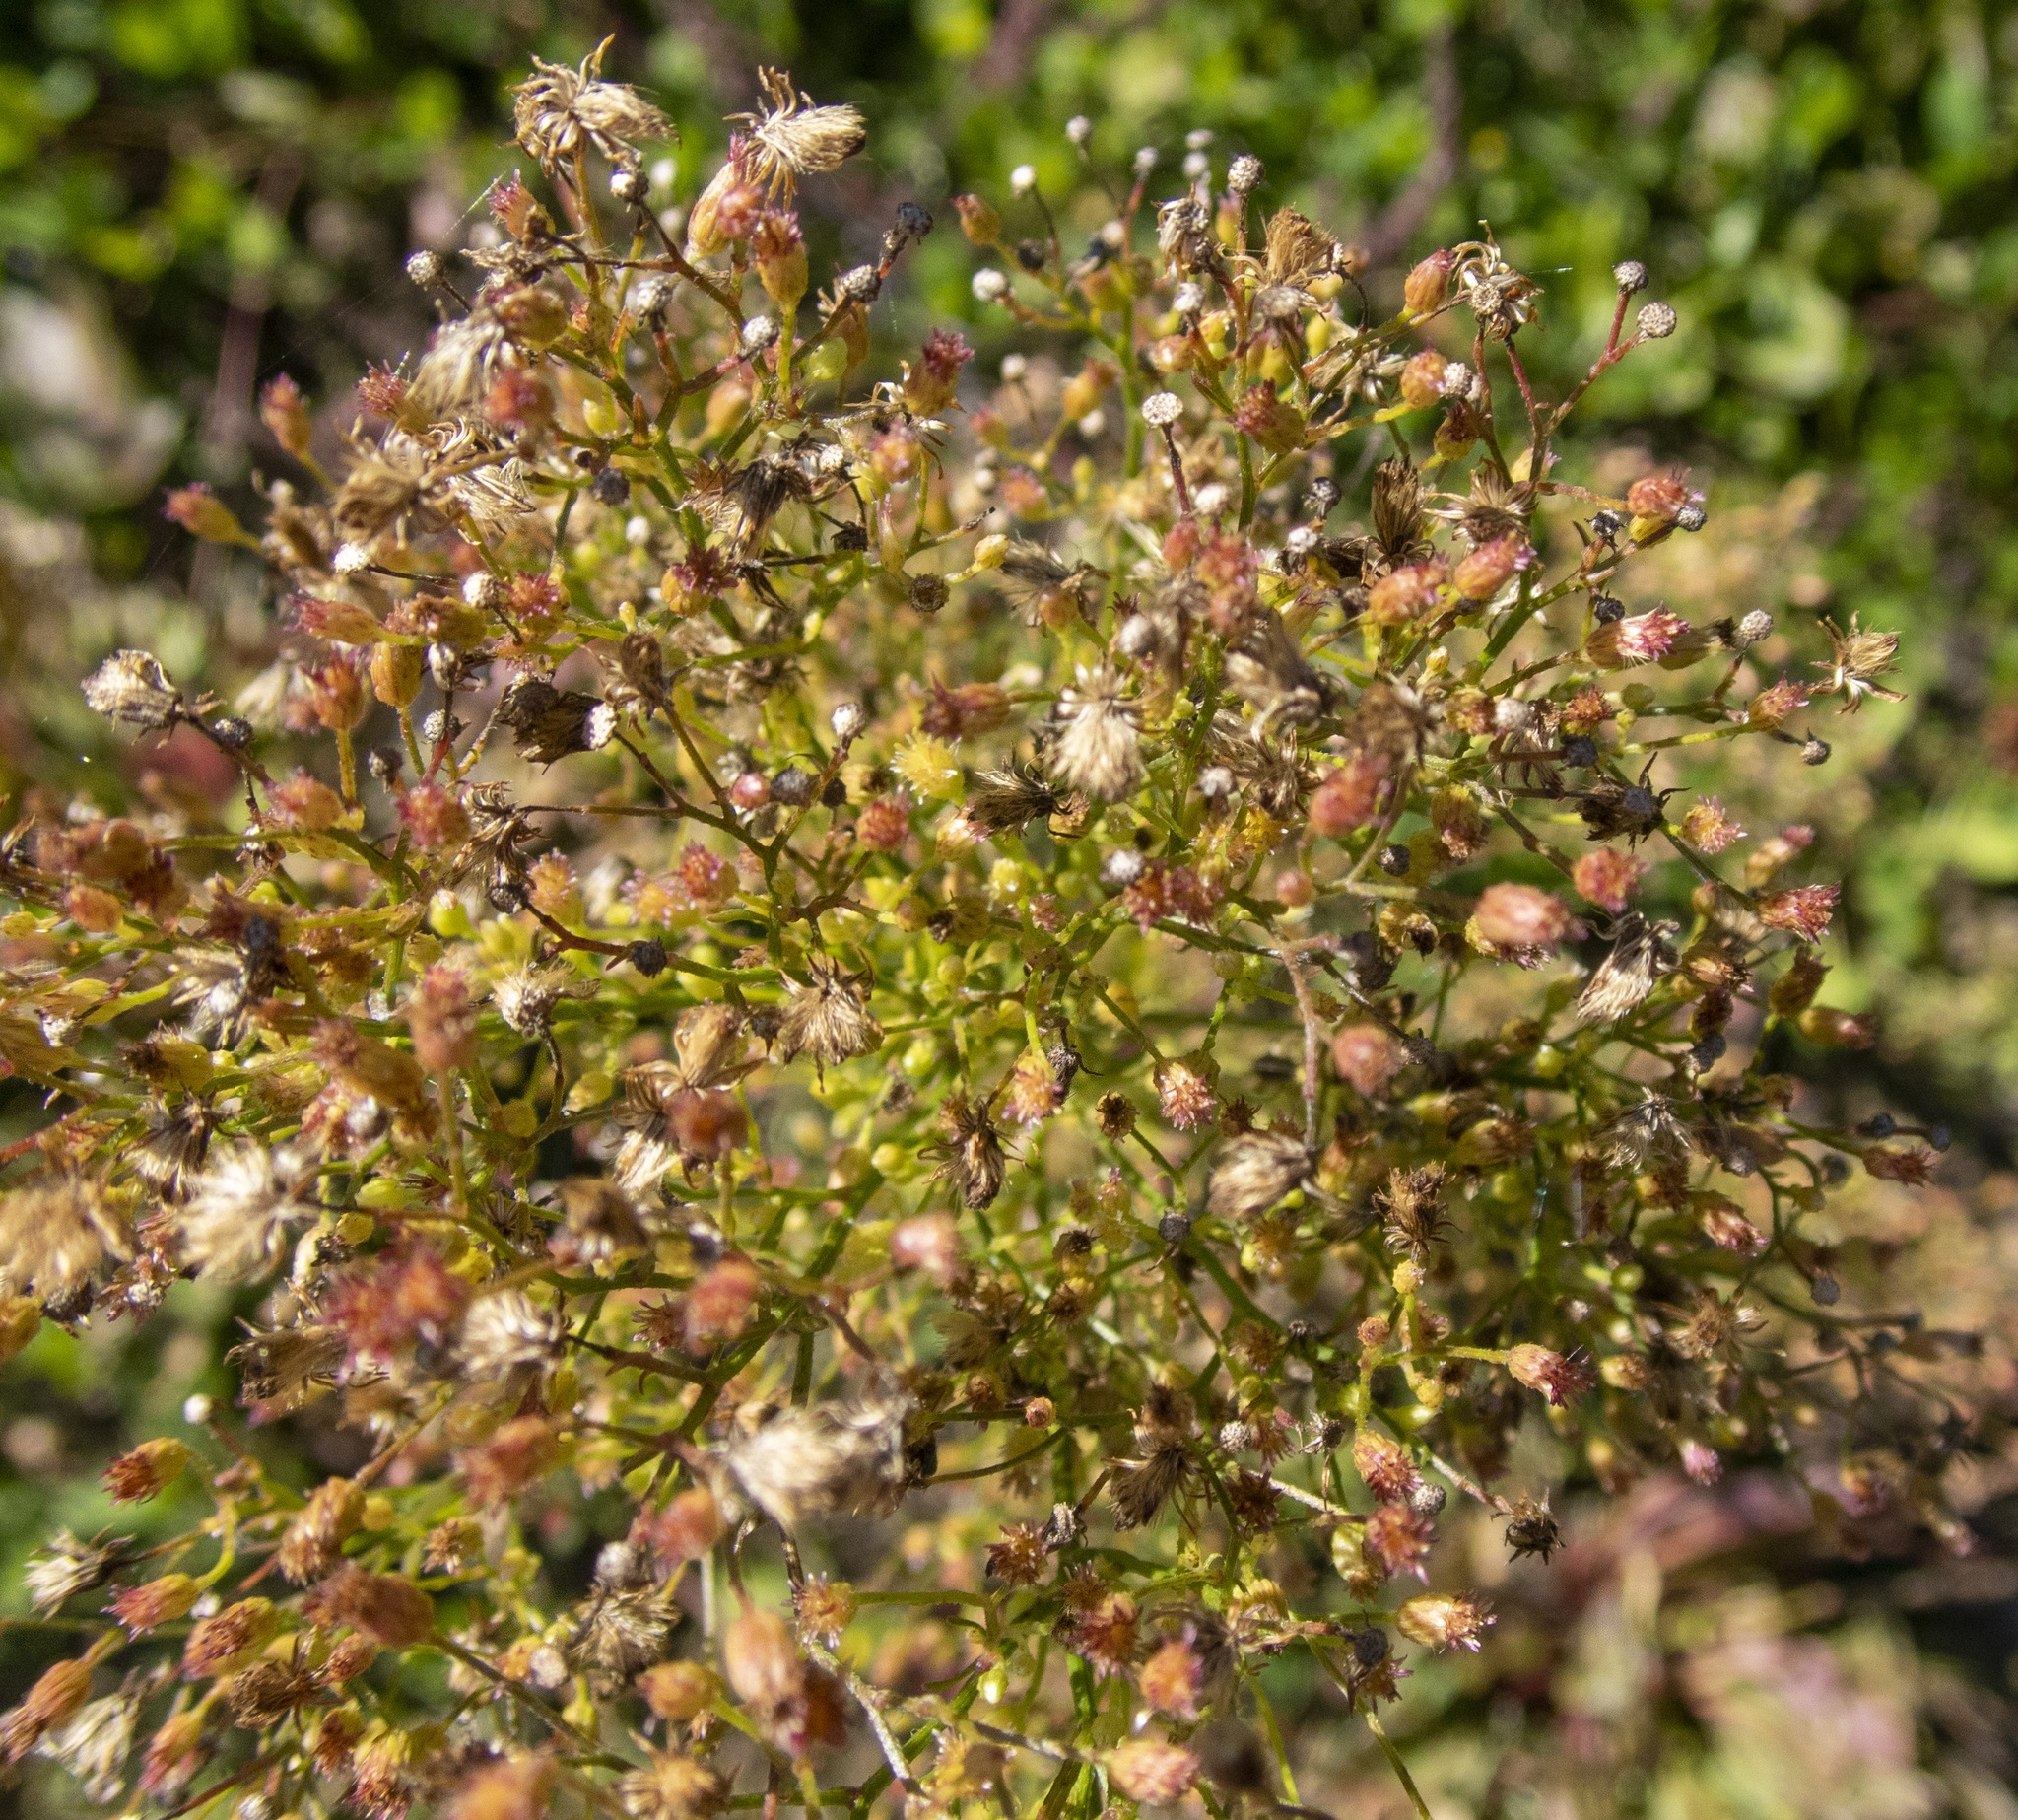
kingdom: Plantae
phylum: Tracheophyta
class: Magnoliopsida
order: Asterales
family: Asteraceae
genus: Erigeron
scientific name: Erigeron canadensis
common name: Canadian fleabane
